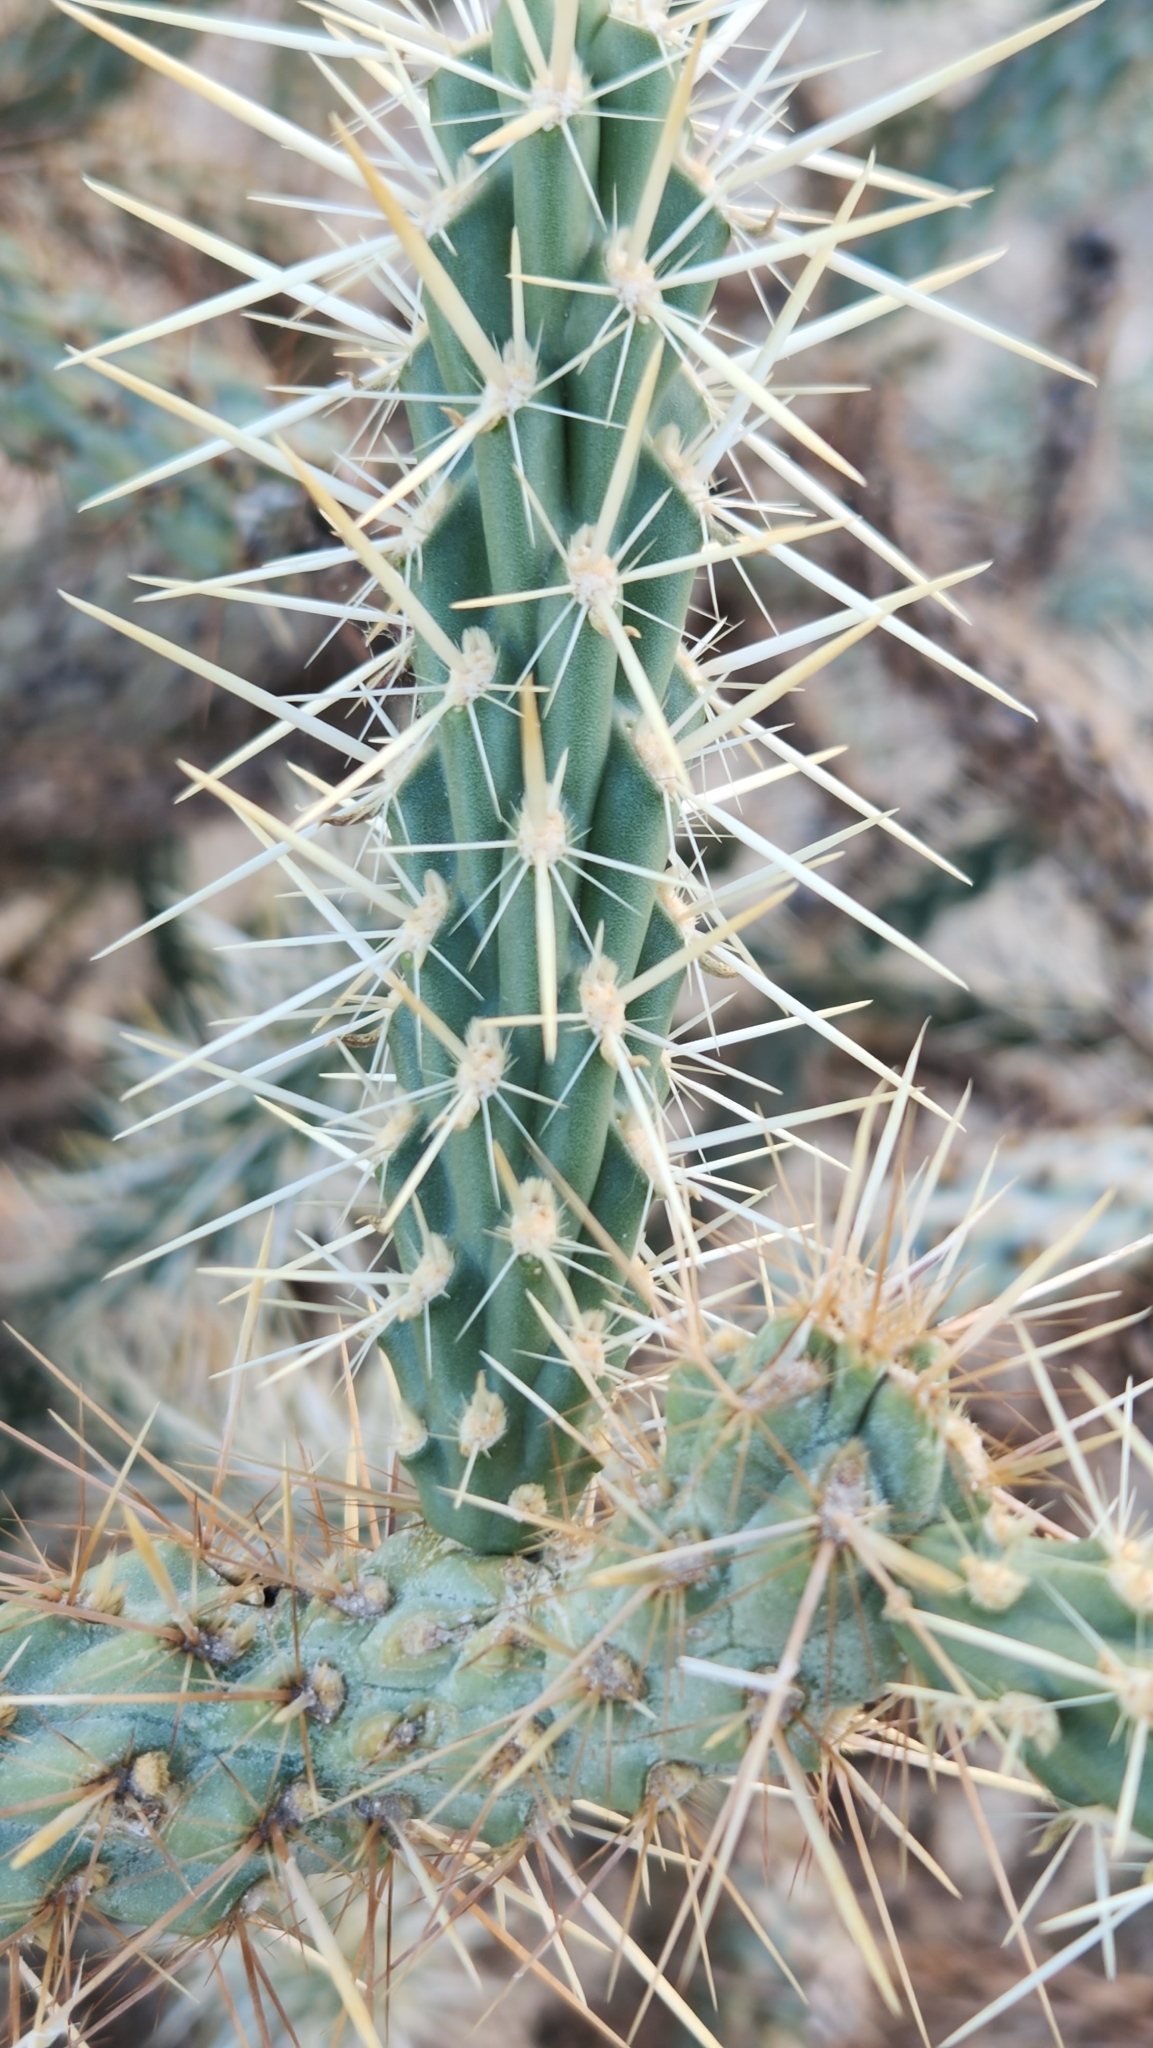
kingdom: Plantae
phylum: Tracheophyta
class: Magnoliopsida
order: Caryophyllales
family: Cactaceae
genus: Cylindropuntia
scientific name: Cylindropuntia ganderi
